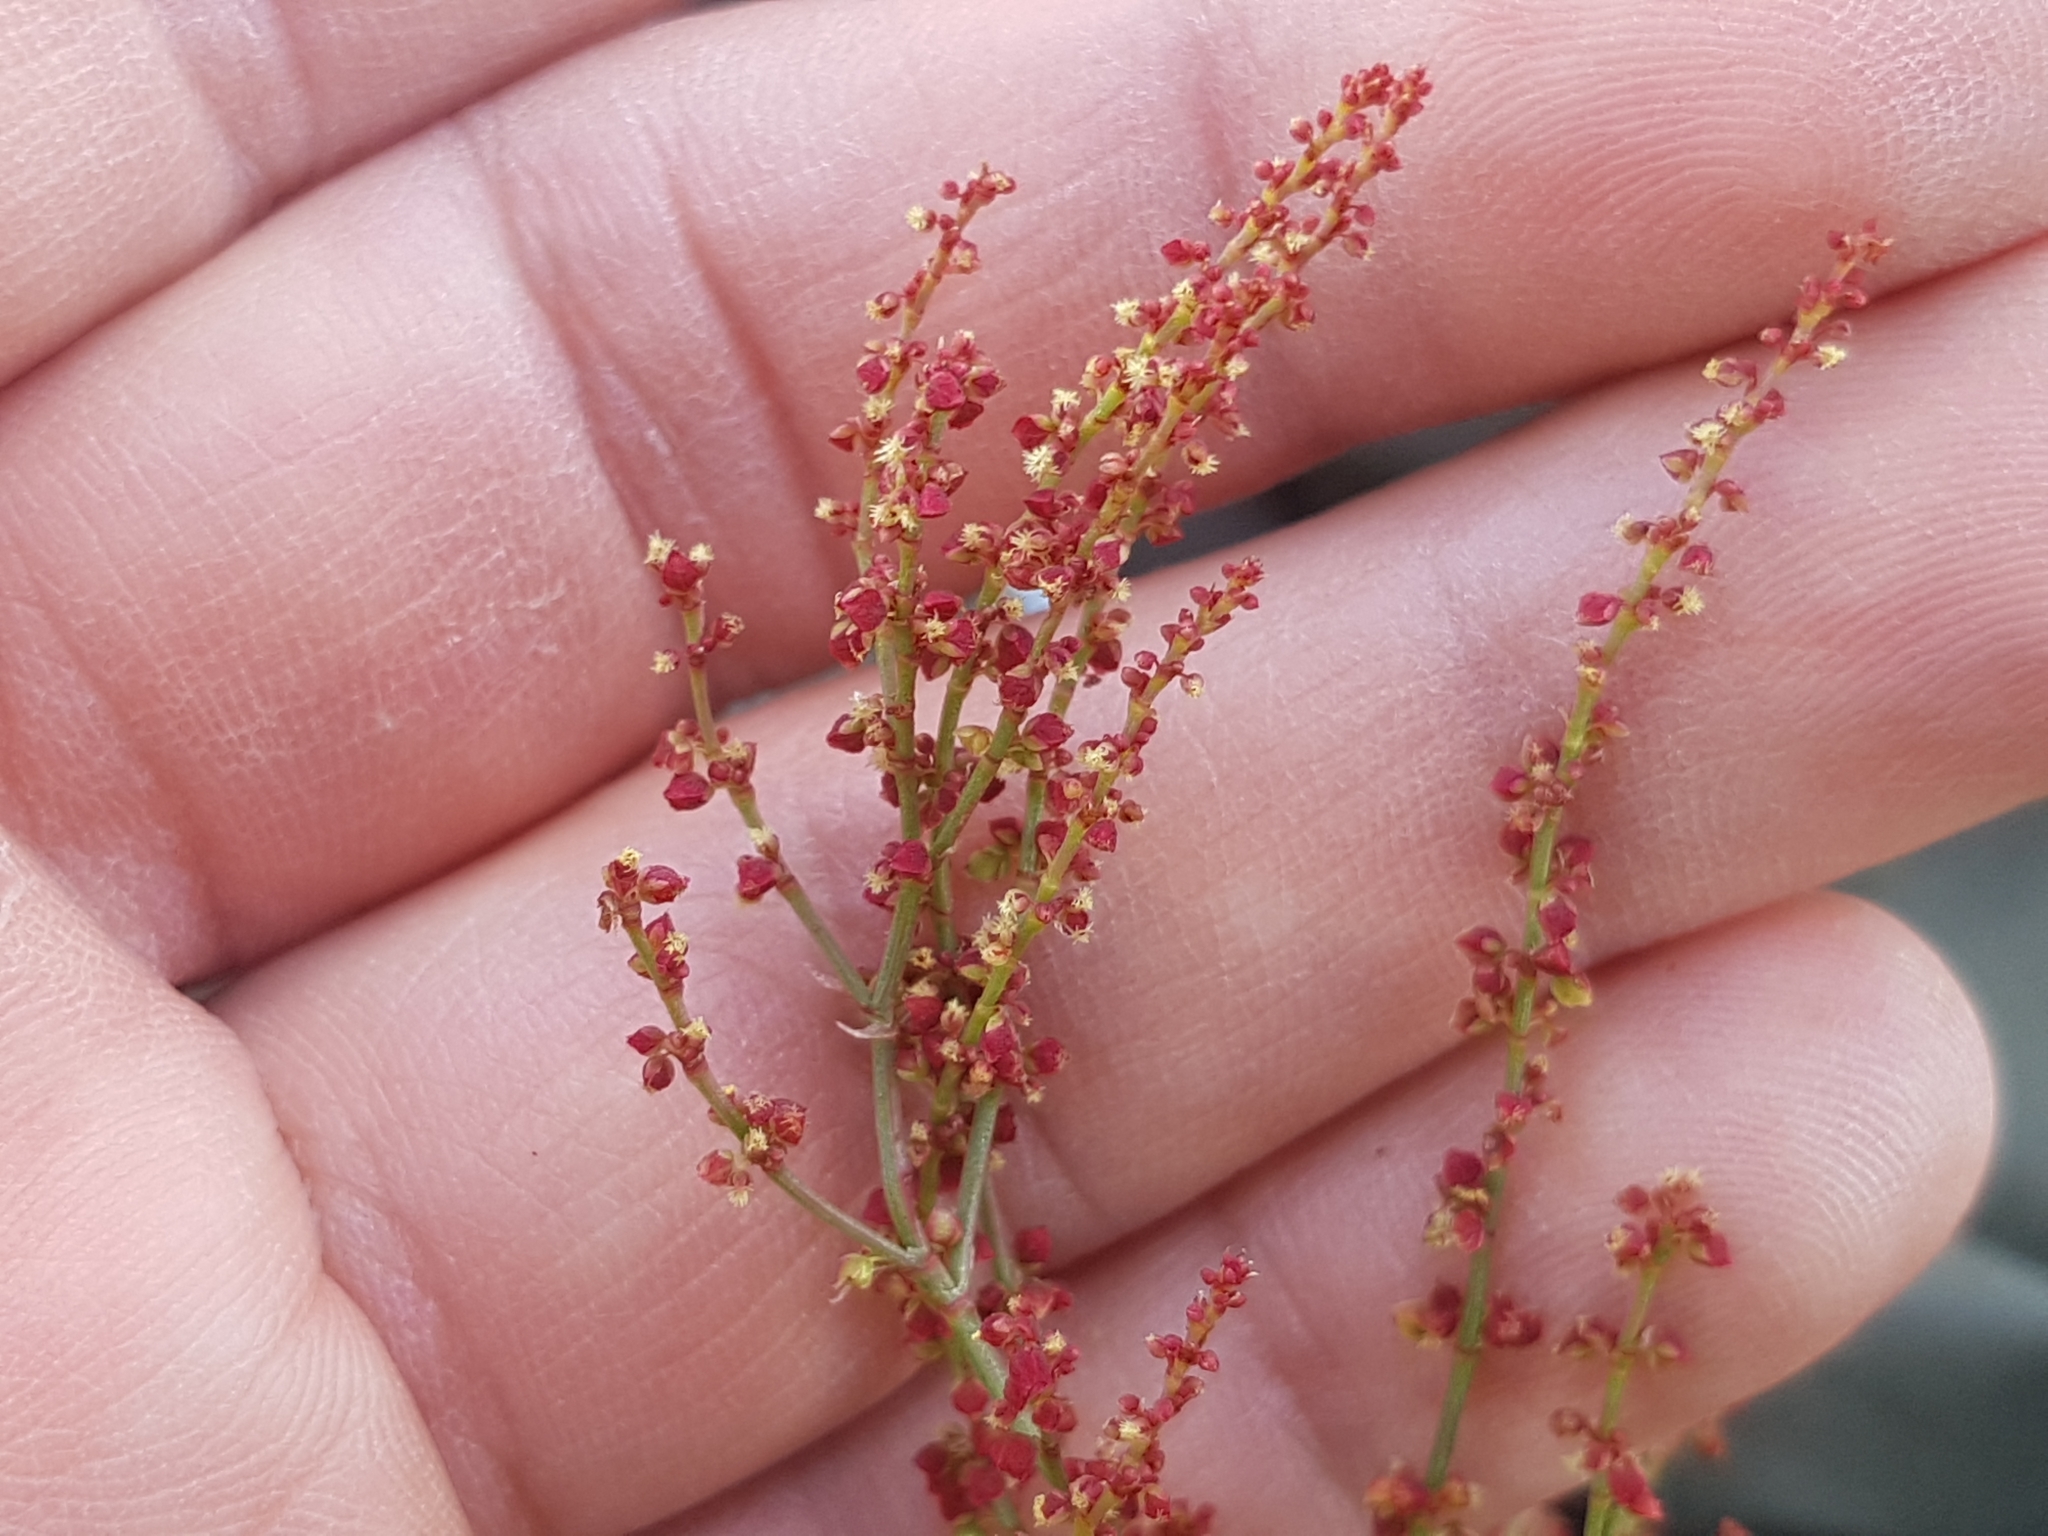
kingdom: Plantae
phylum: Tracheophyta
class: Magnoliopsida
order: Caryophyllales
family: Polygonaceae
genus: Rumex
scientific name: Rumex acetosella
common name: Common sheep sorrel
